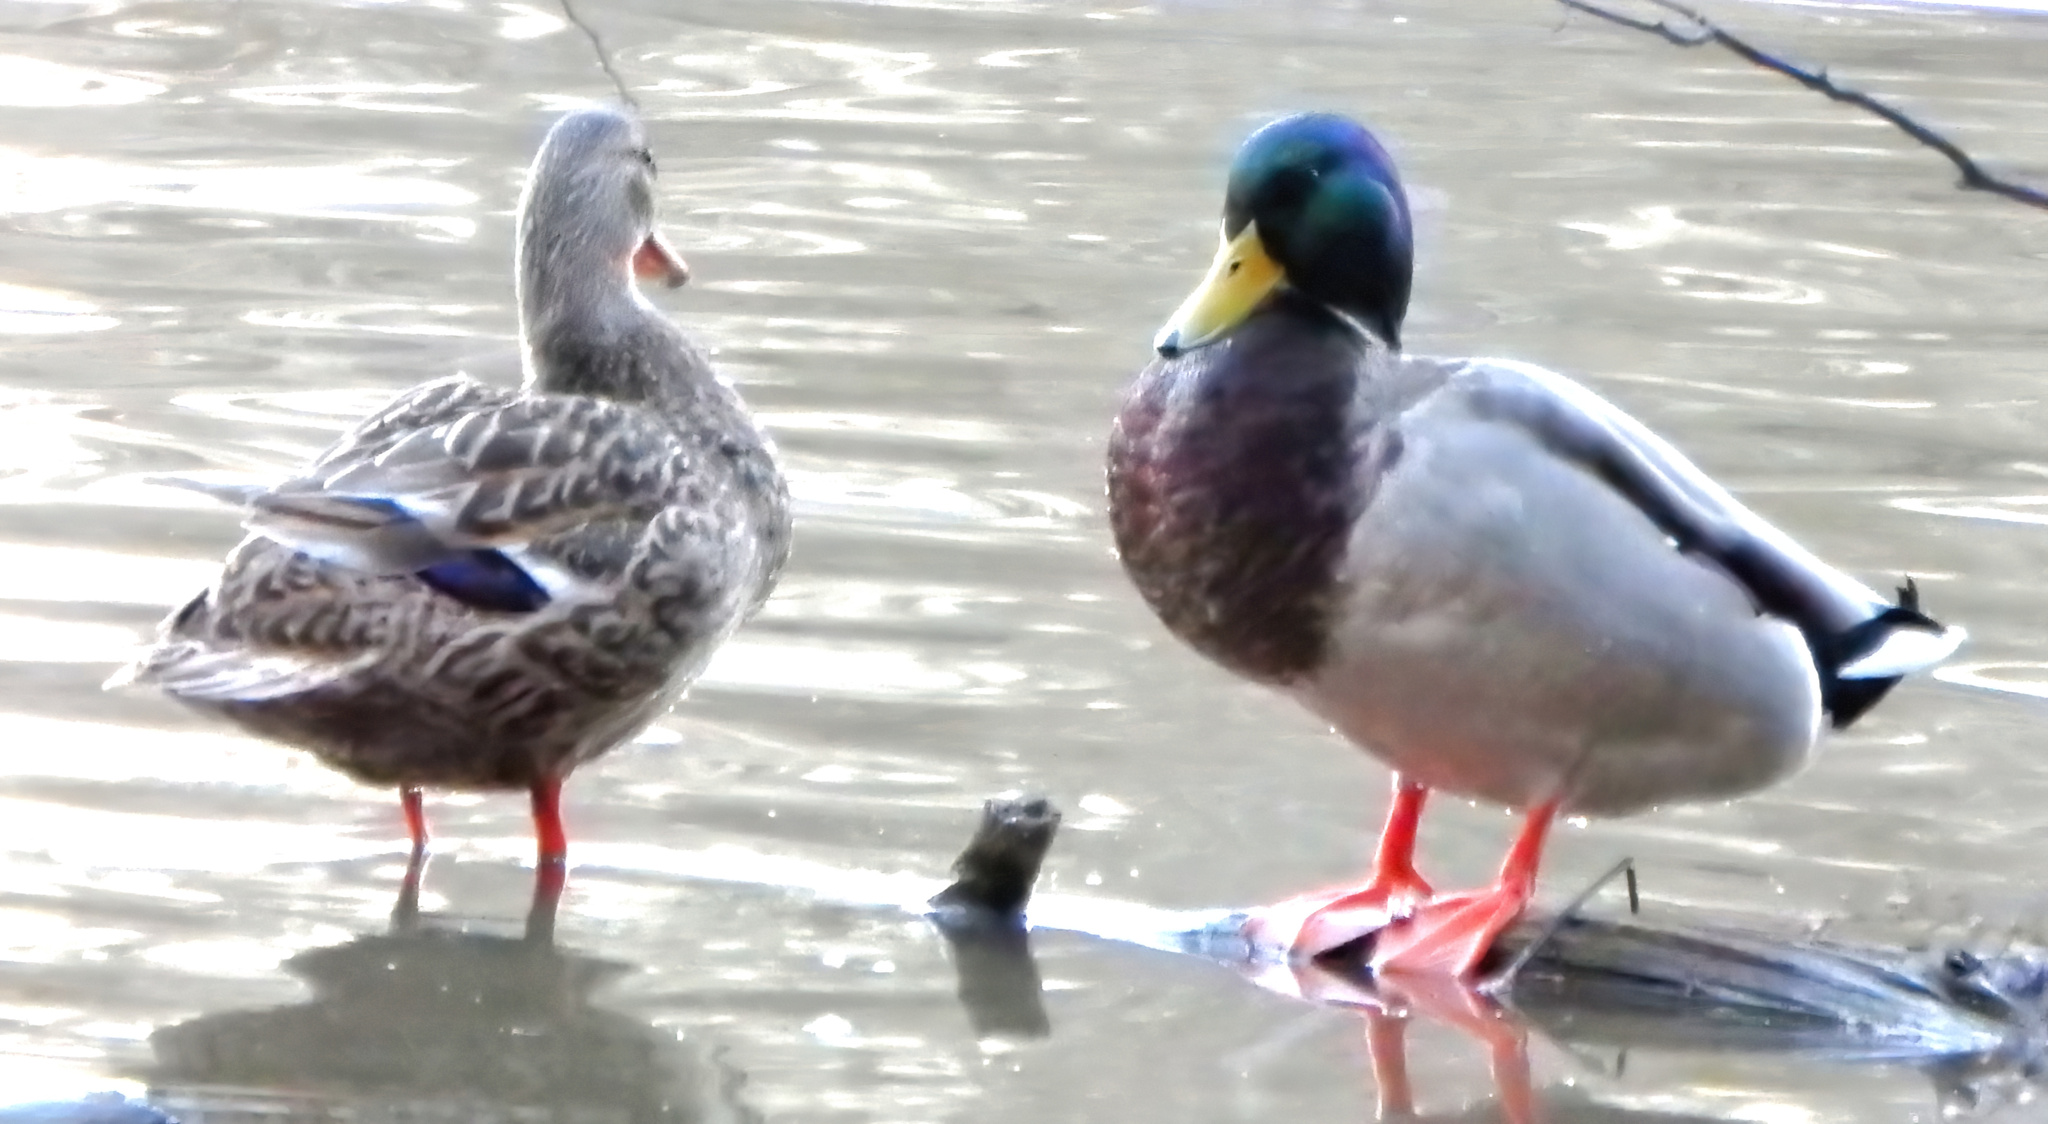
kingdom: Animalia
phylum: Chordata
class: Aves
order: Anseriformes
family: Anatidae
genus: Anas
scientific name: Anas platyrhynchos
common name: Mallard
